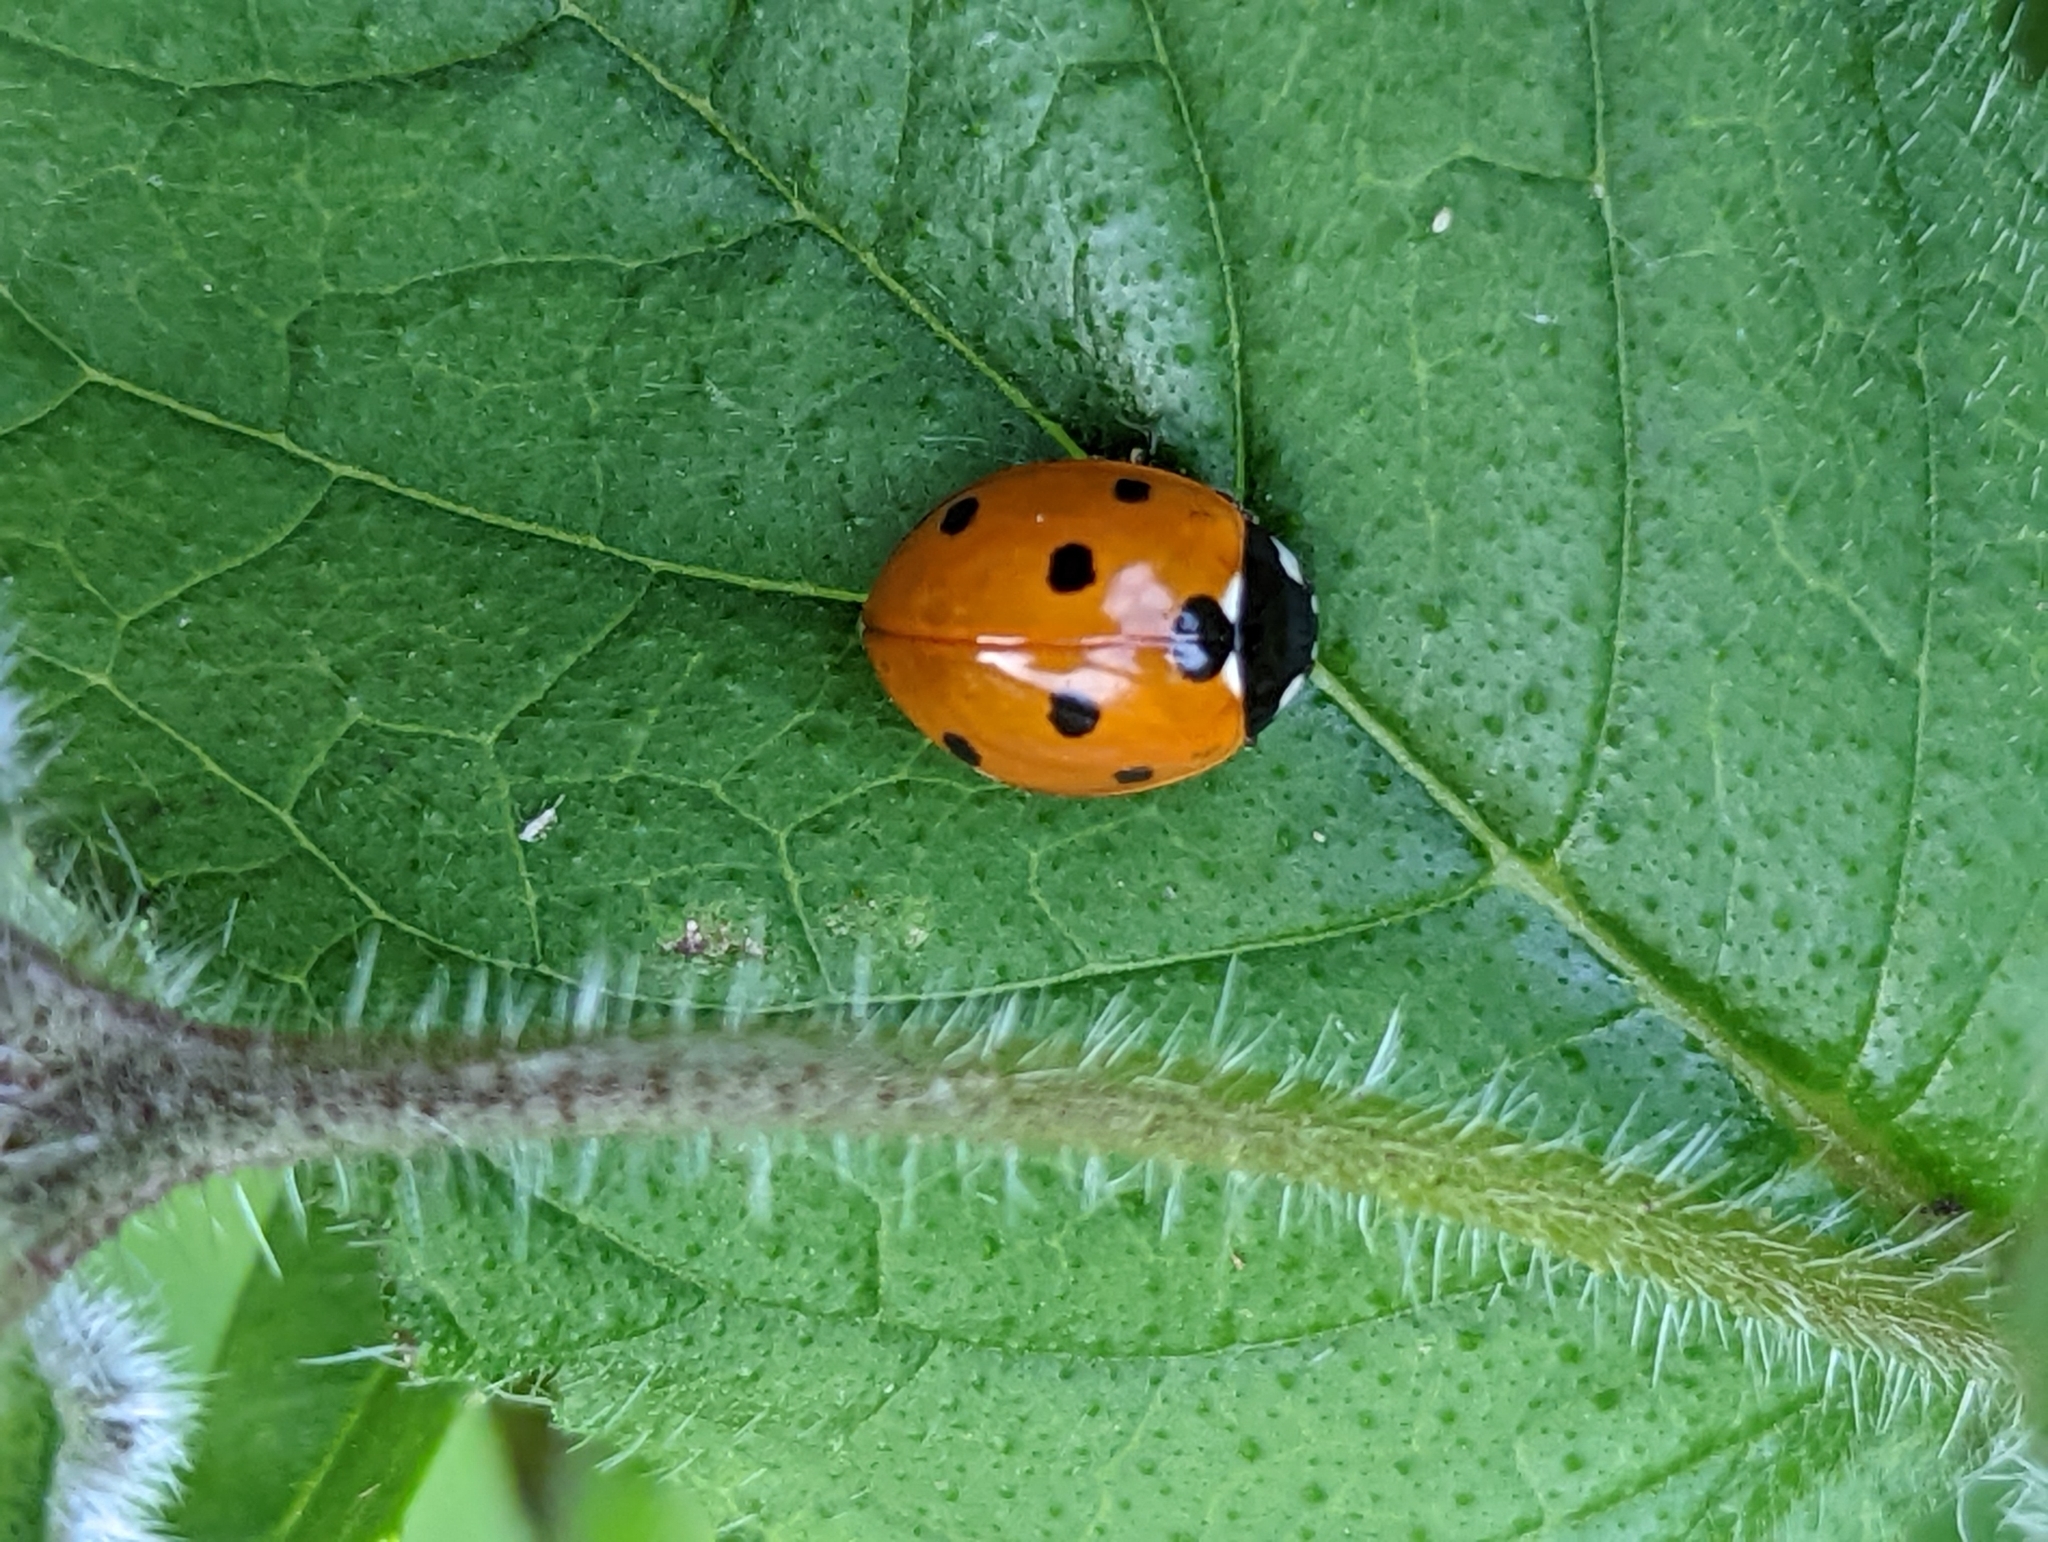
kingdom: Animalia
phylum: Arthropoda
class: Insecta
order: Coleoptera
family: Coccinellidae
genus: Coccinella
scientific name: Coccinella septempunctata
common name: Sevenspotted lady beetle
